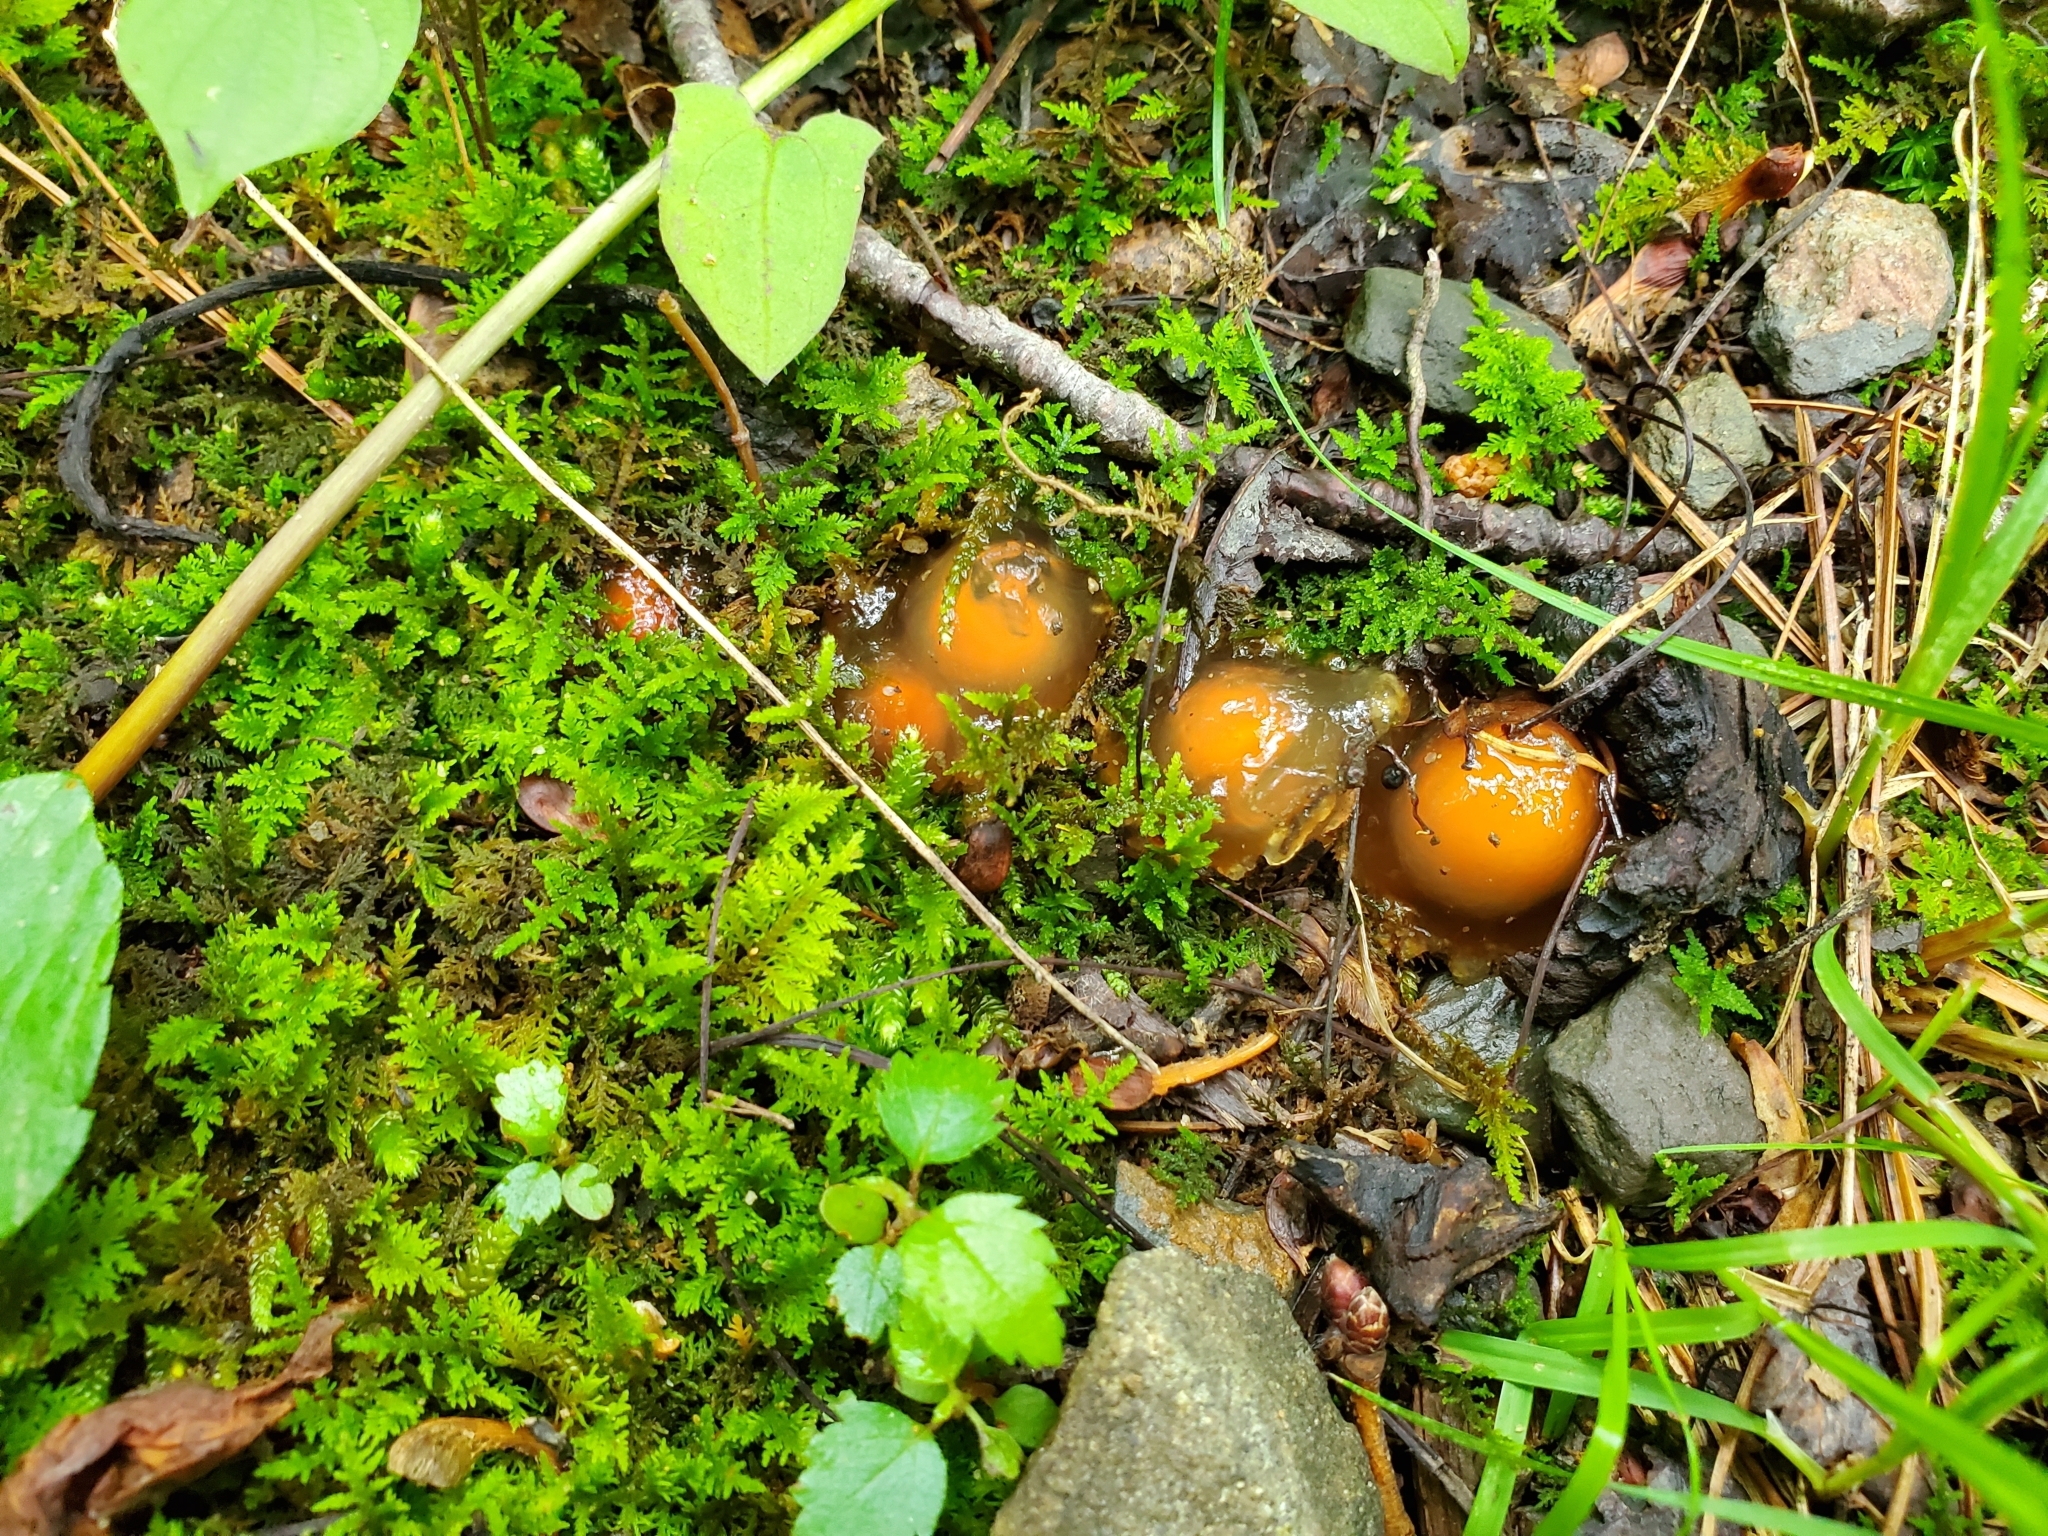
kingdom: Fungi
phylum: Basidiomycota
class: Agaricomycetes
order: Boletales
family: Calostomataceae
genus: Calostoma
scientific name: Calostoma cinnabarinum
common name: Stalked puffball-in-aspic
